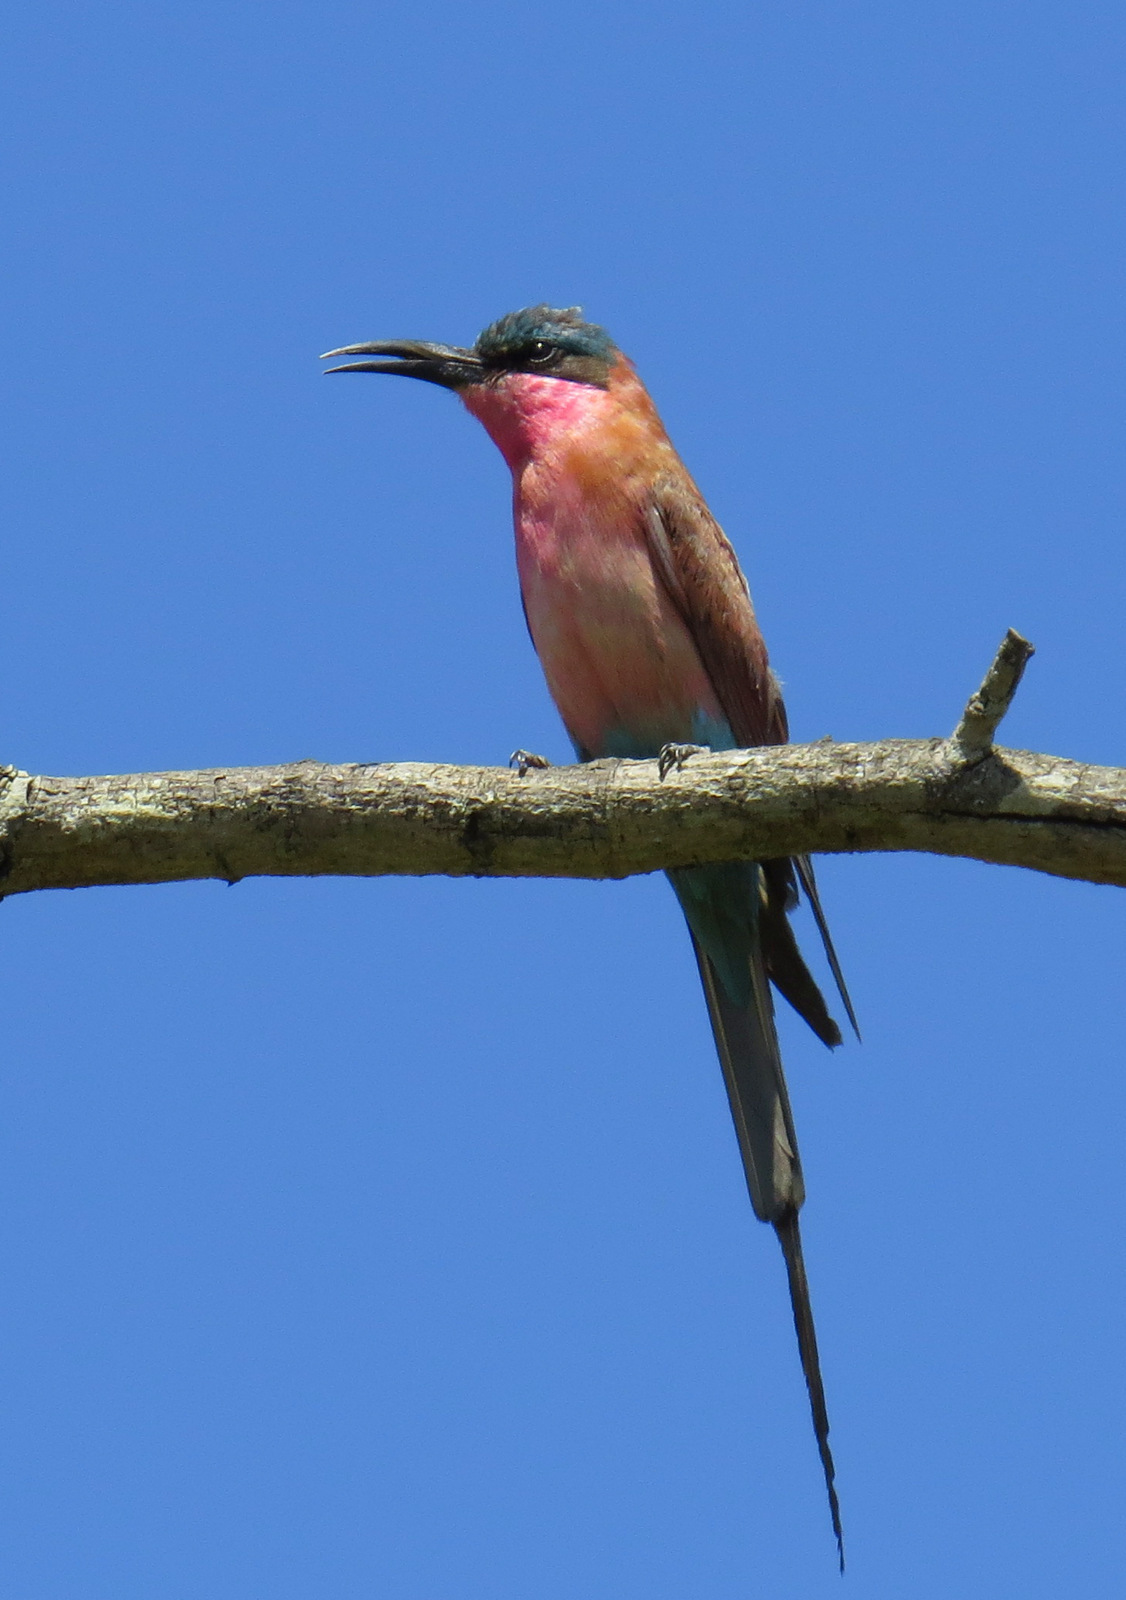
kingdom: Animalia
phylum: Chordata
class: Aves
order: Coraciiformes
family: Meropidae
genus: Merops
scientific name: Merops nubicoides
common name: Southern carmine bee-eater
